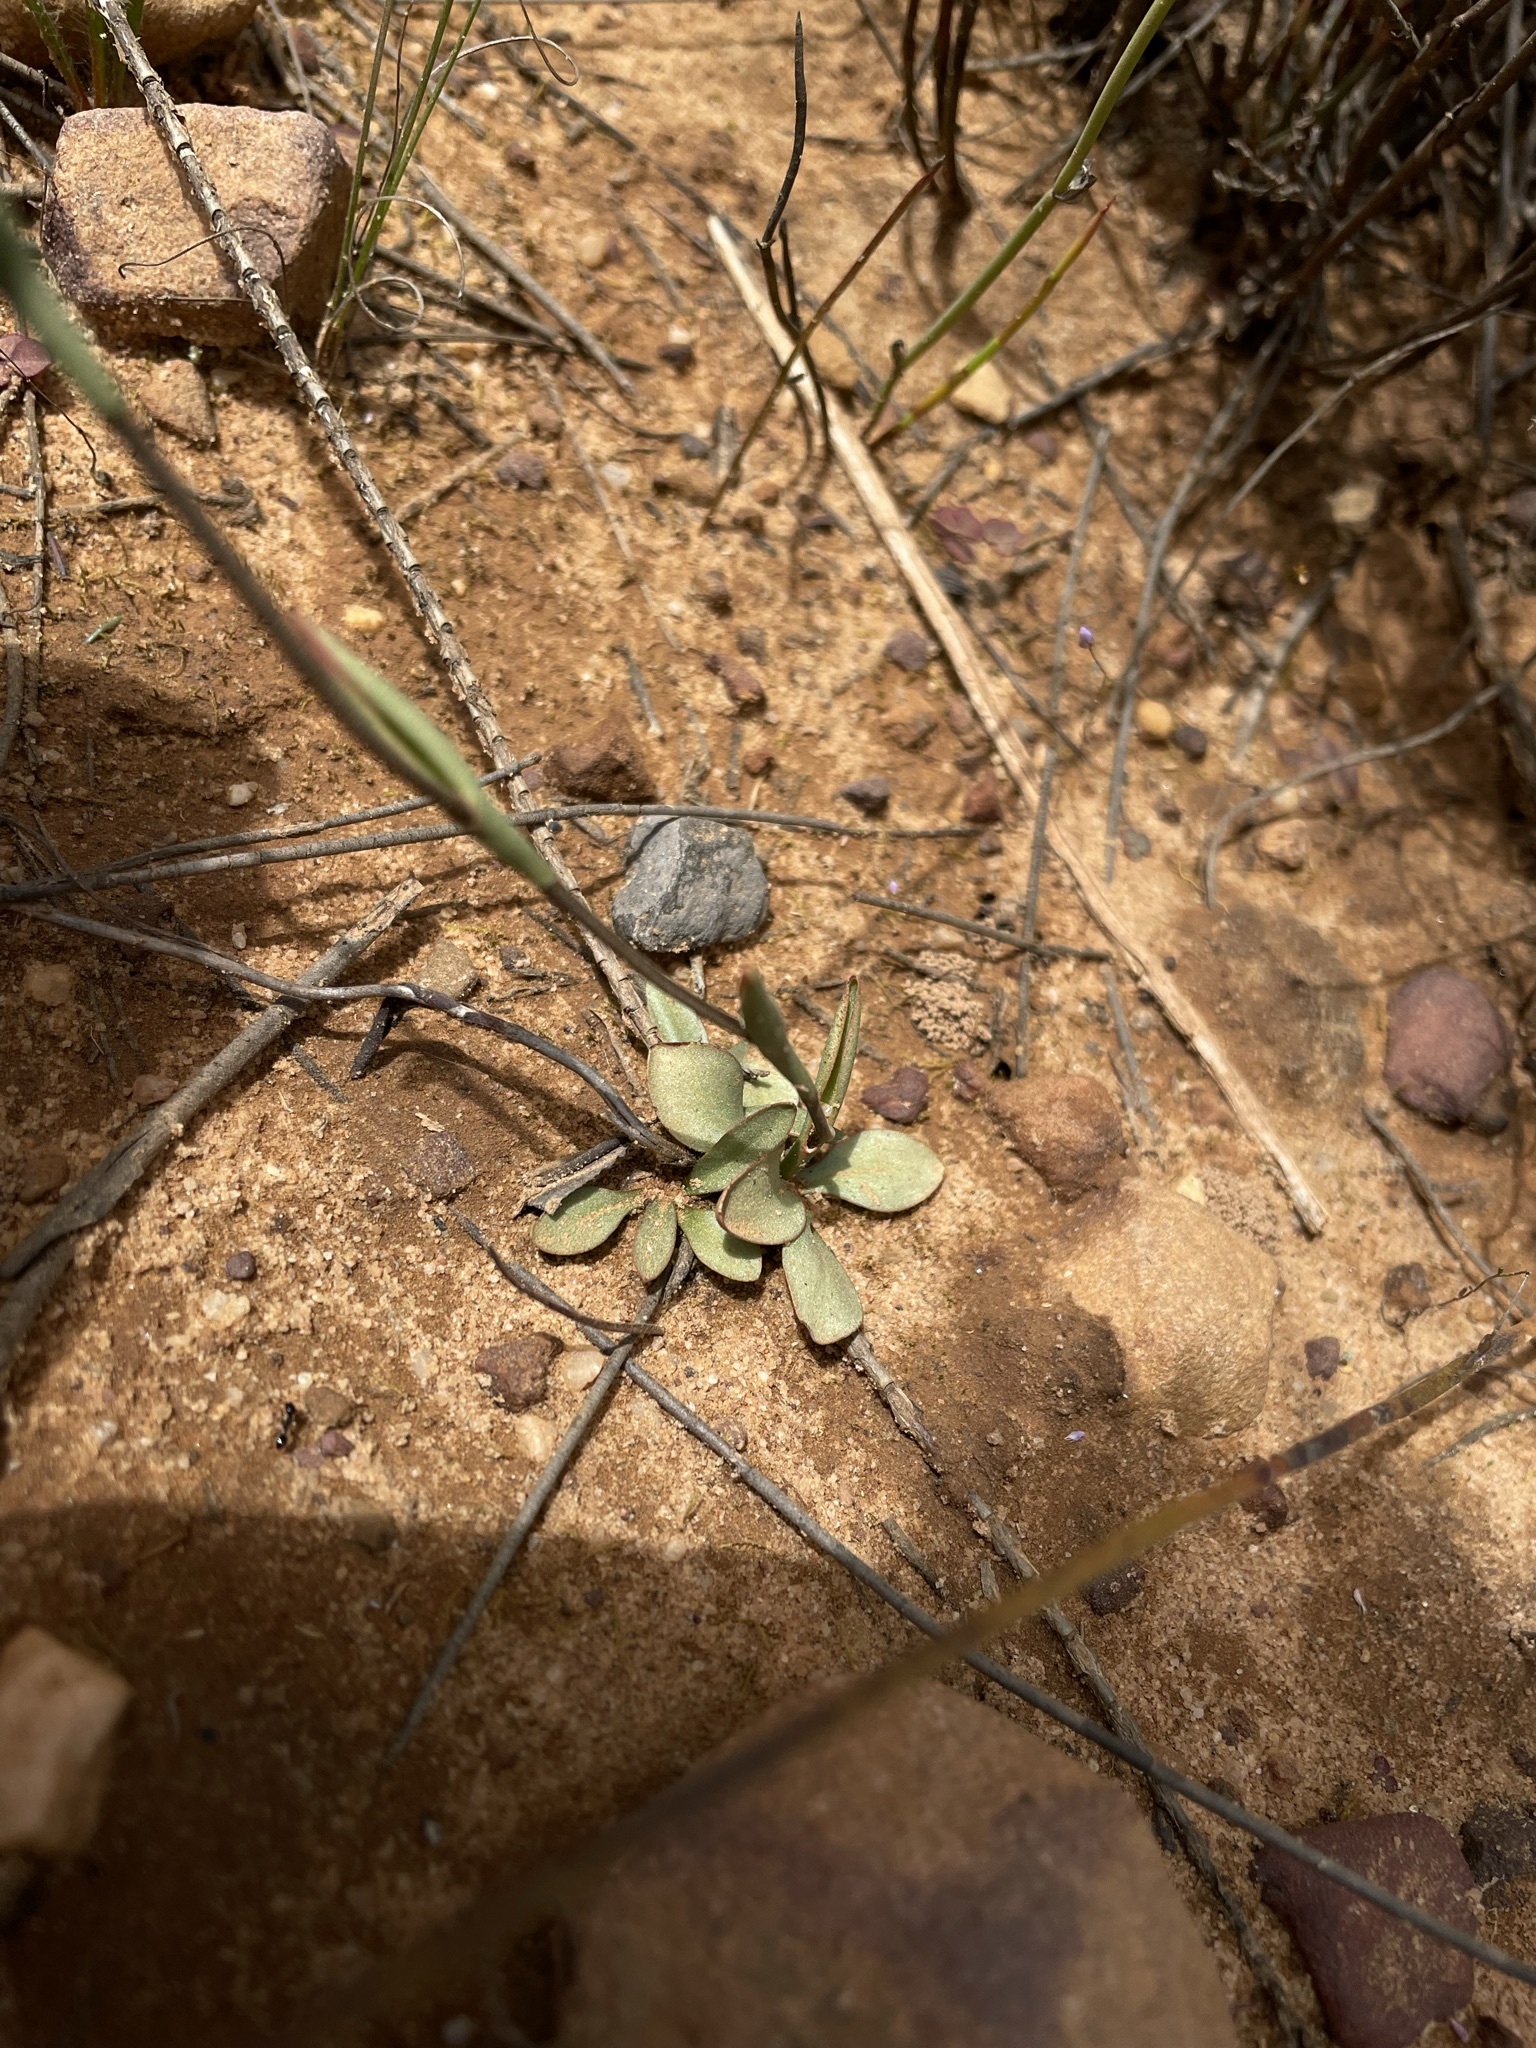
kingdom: Plantae
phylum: Tracheophyta
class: Liliopsida
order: Asparagales
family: Orchidaceae
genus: Disa
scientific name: Disa flexuosa
